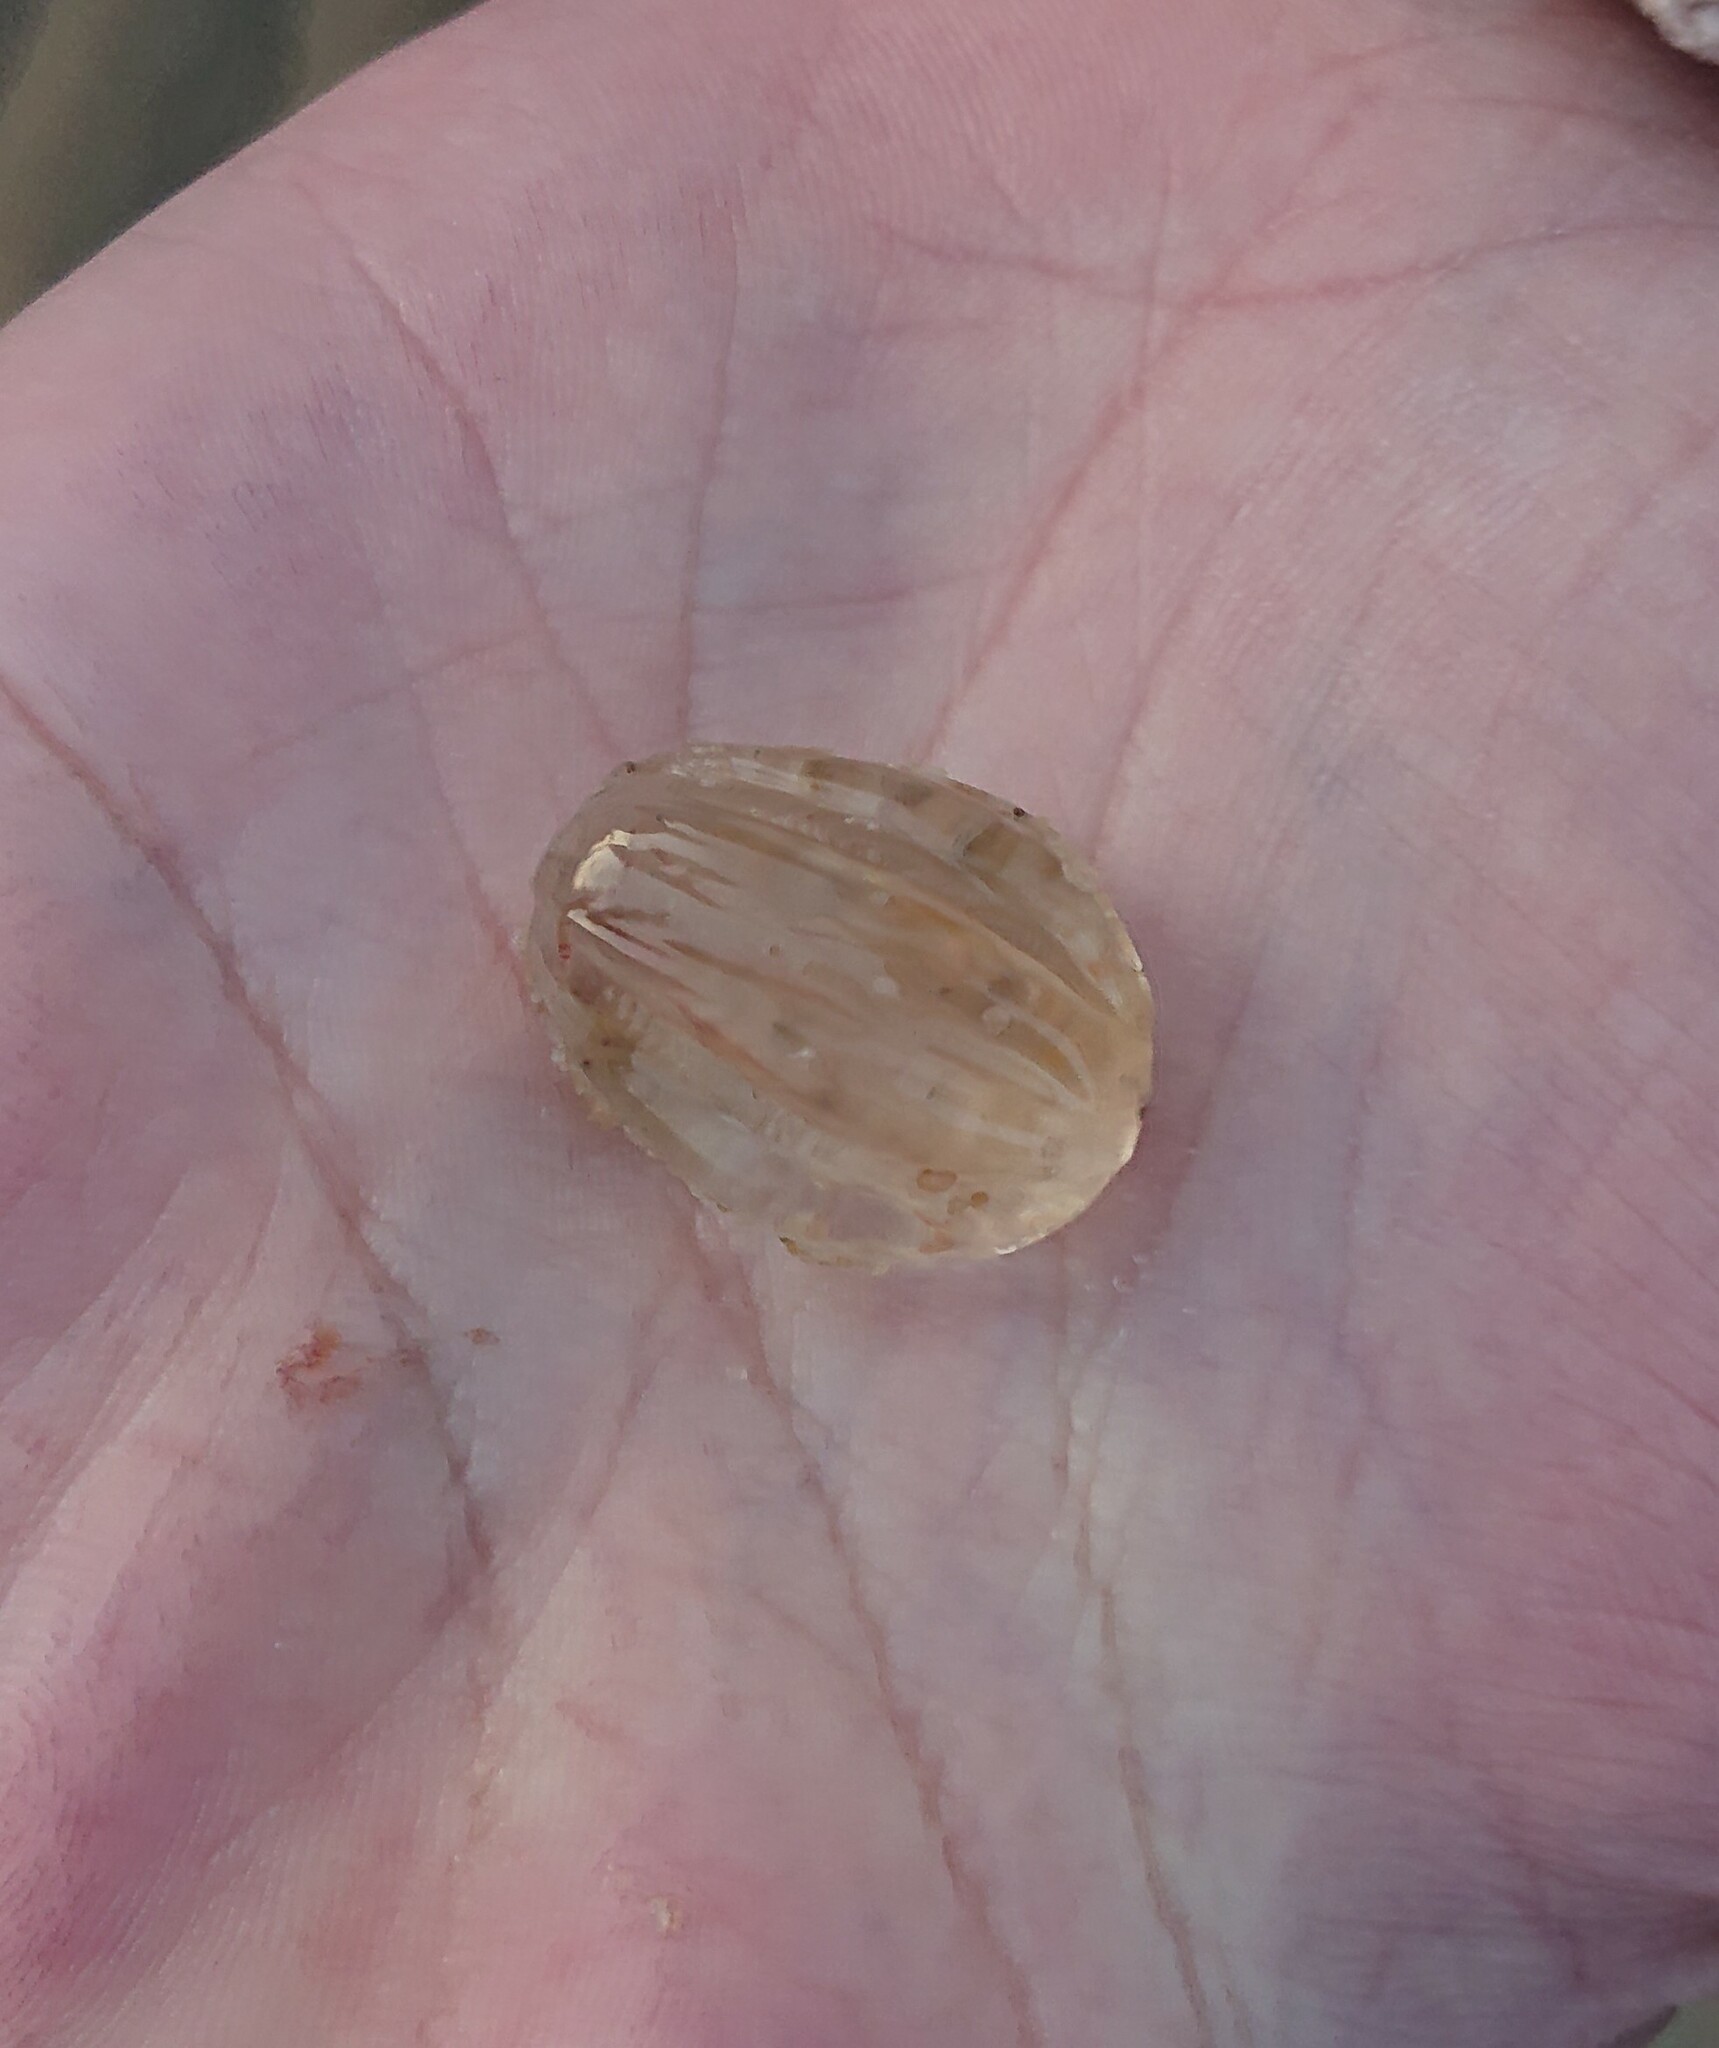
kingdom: Animalia
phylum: Ctenophora
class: Tentaculata
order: Cydippida
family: Pleurobrachiidae
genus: Pleurobrachia
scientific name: Pleurobrachia pileus
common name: Sea gooseberry
